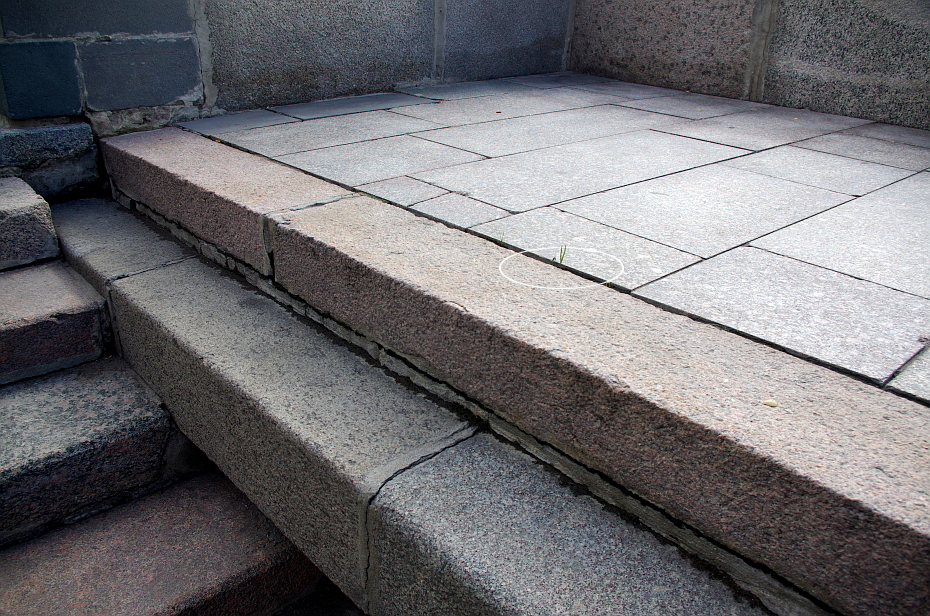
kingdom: Plantae
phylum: Tracheophyta
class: Magnoliopsida
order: Sapindales
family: Sapindaceae
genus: Acer
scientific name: Acer negundo
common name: Ashleaf maple
